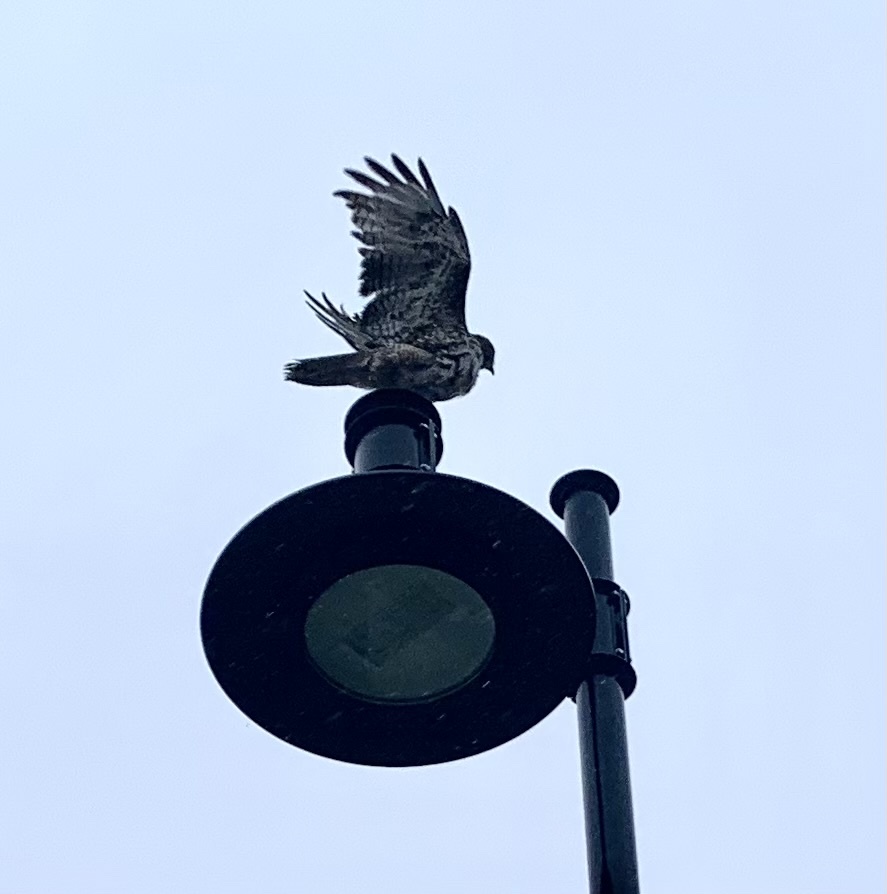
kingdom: Animalia
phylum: Chordata
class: Aves
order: Accipitriformes
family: Accipitridae
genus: Buteo
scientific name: Buteo jamaicensis
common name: Red-tailed hawk
